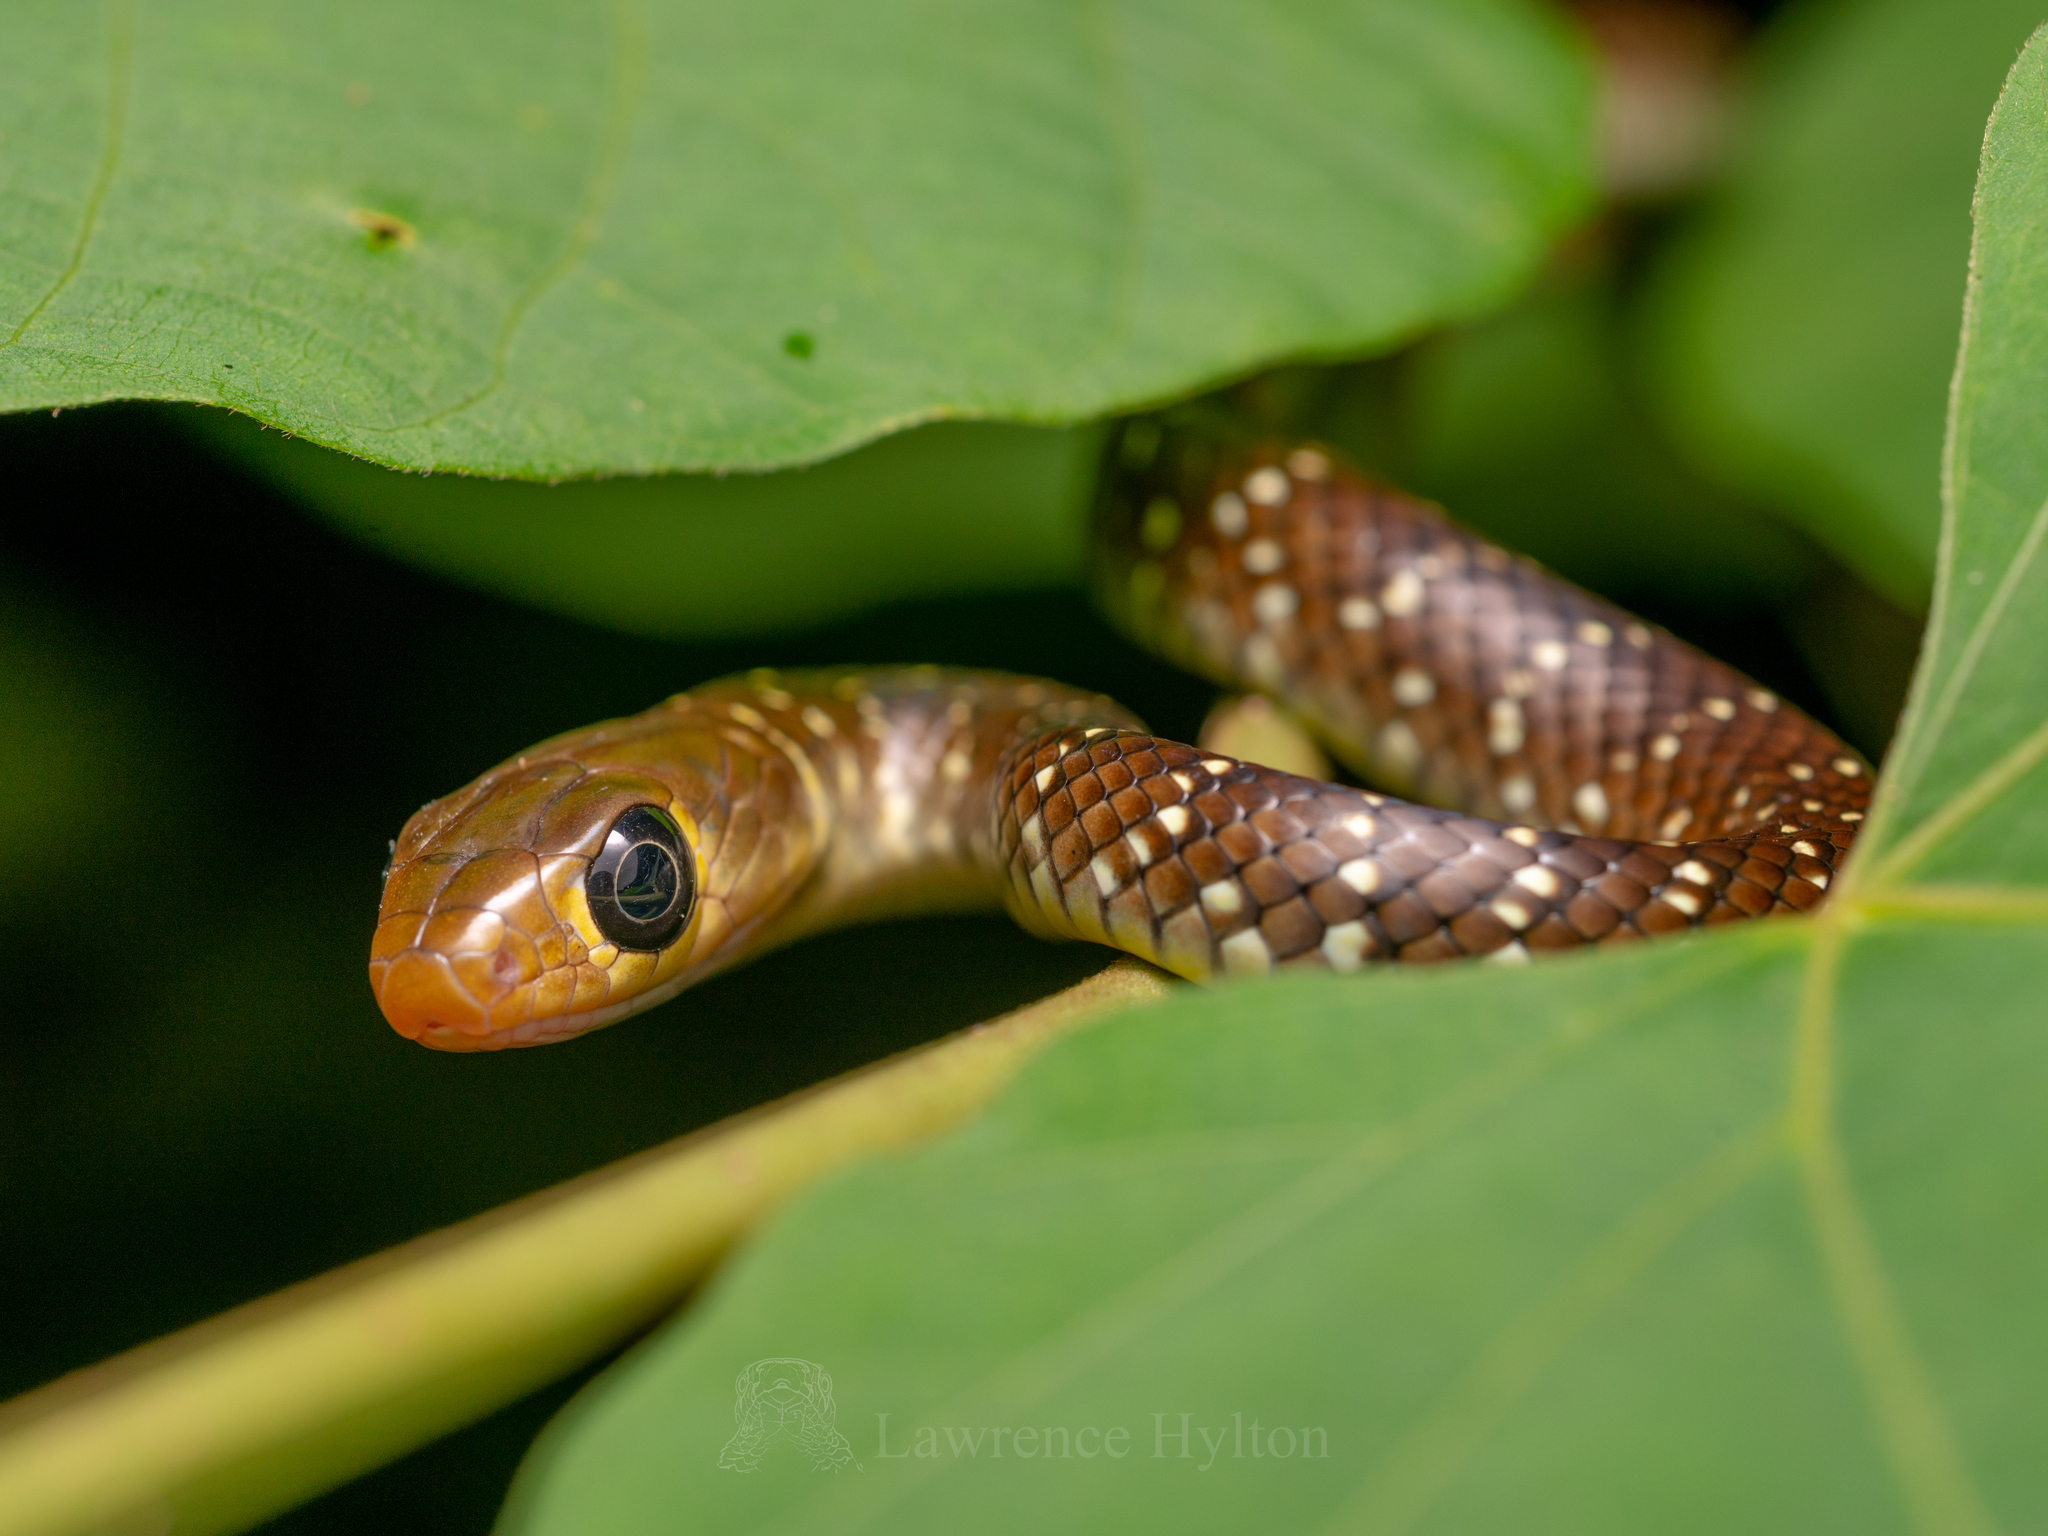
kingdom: Animalia
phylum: Chordata
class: Squamata
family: Colubridae
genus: Ptyas
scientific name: Ptyas korros
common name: Indo-chinese rat snake
